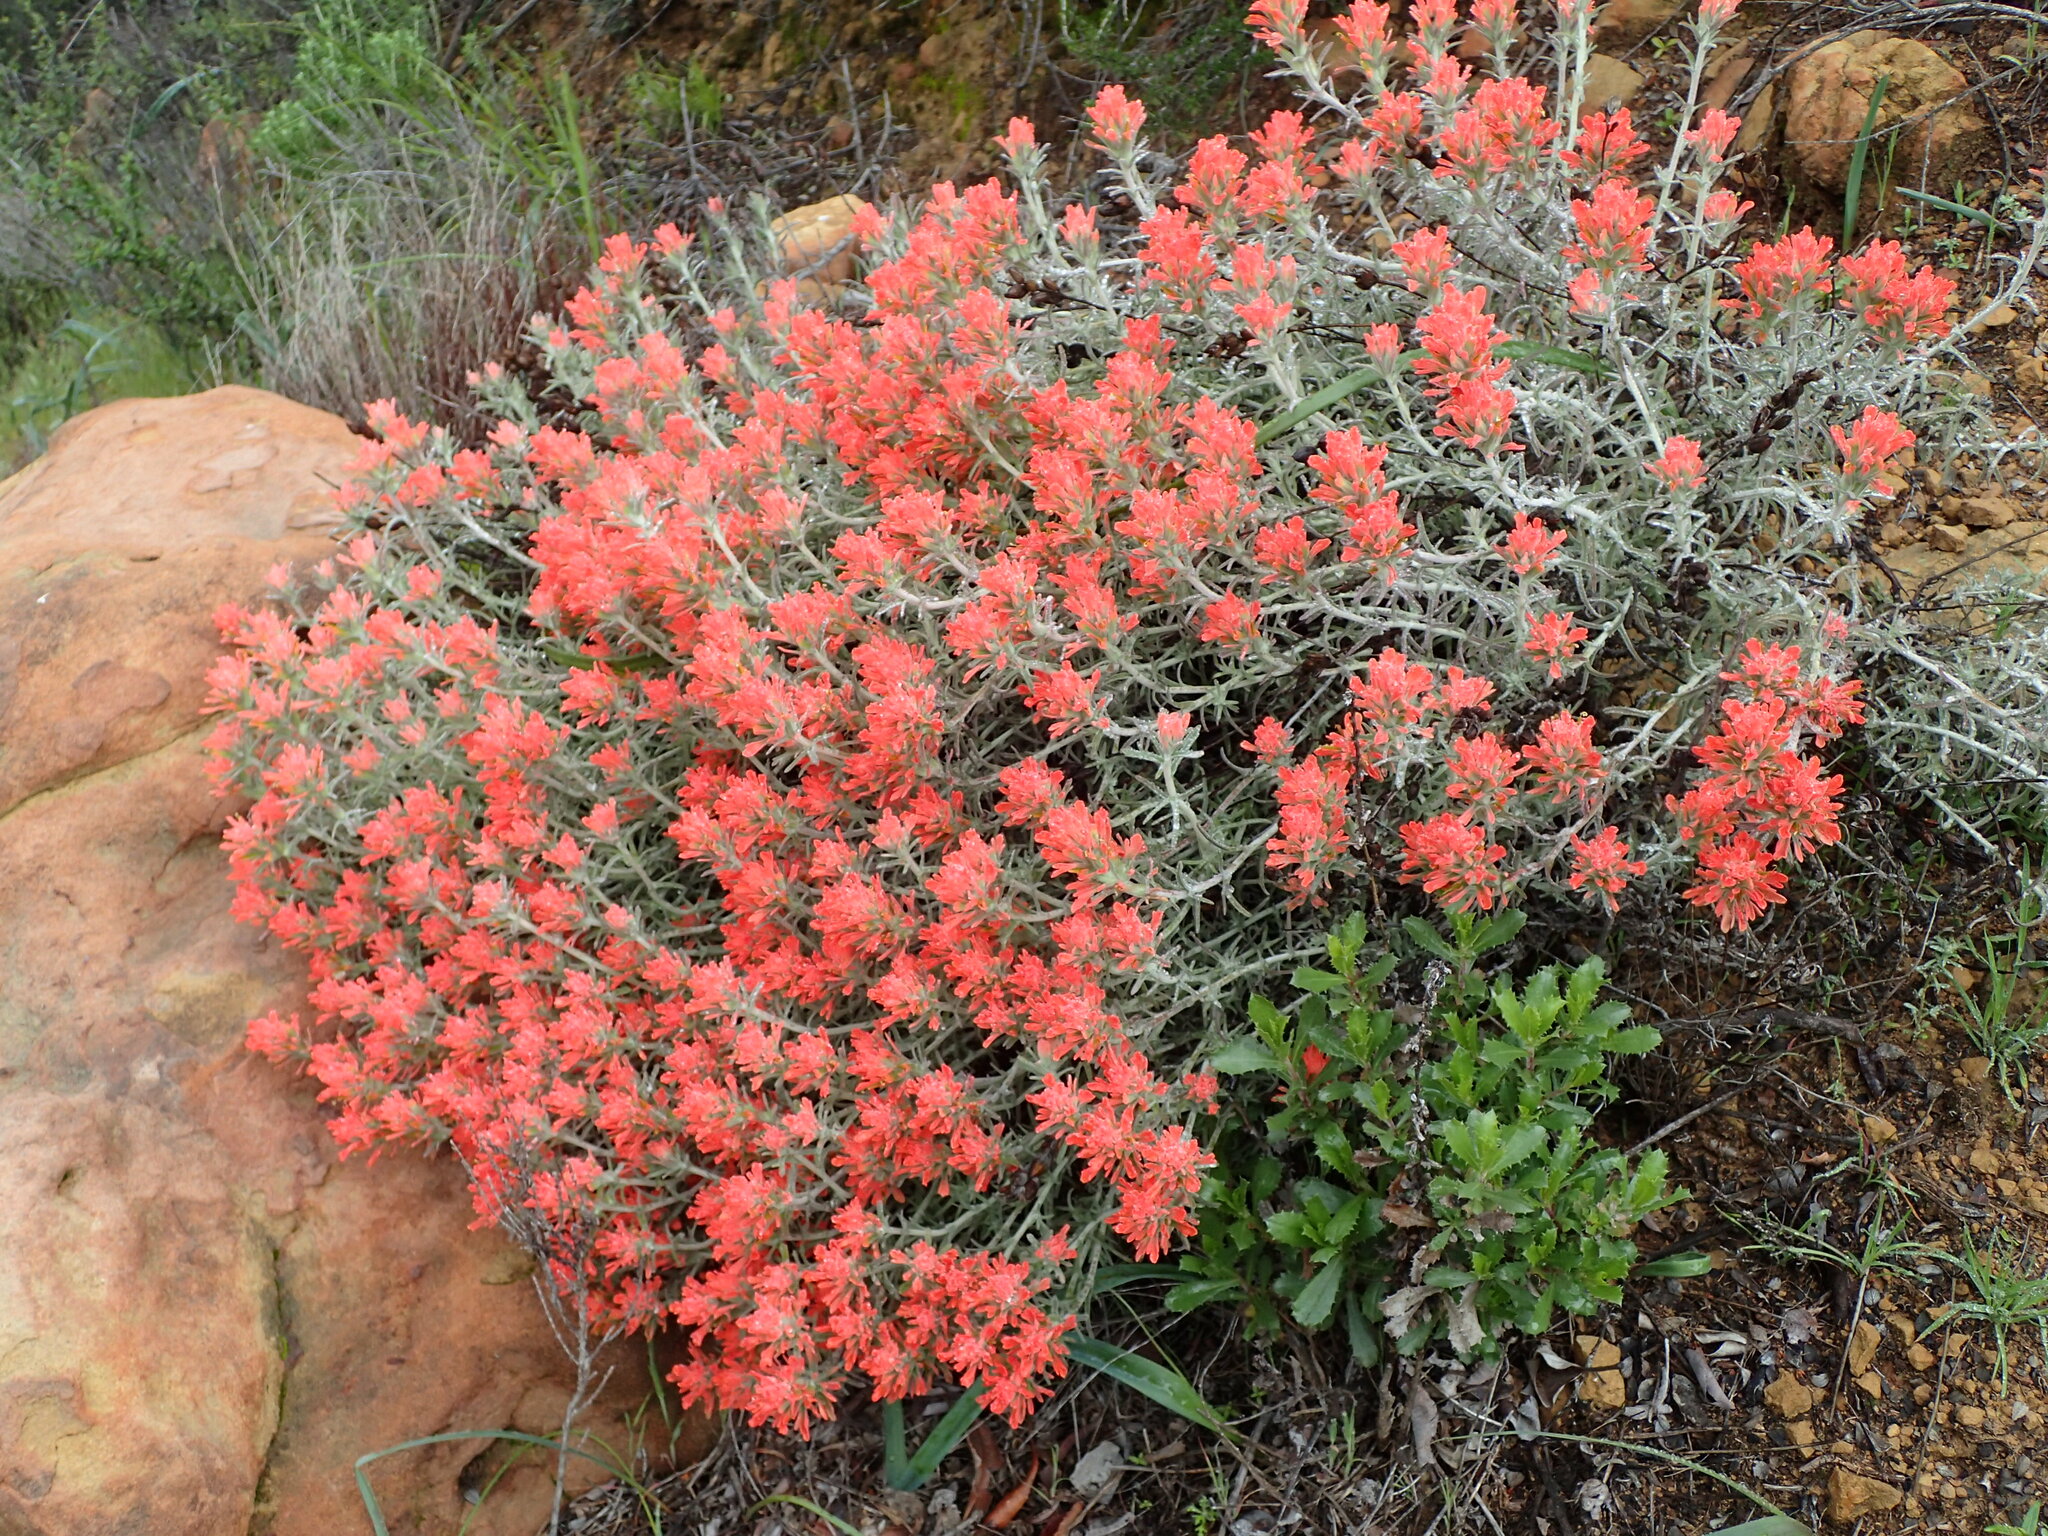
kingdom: Plantae
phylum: Tracheophyta
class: Magnoliopsida
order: Lamiales
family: Orobanchaceae
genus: Castilleja
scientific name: Castilleja foliolosa
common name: Woolly indian paintbrush
